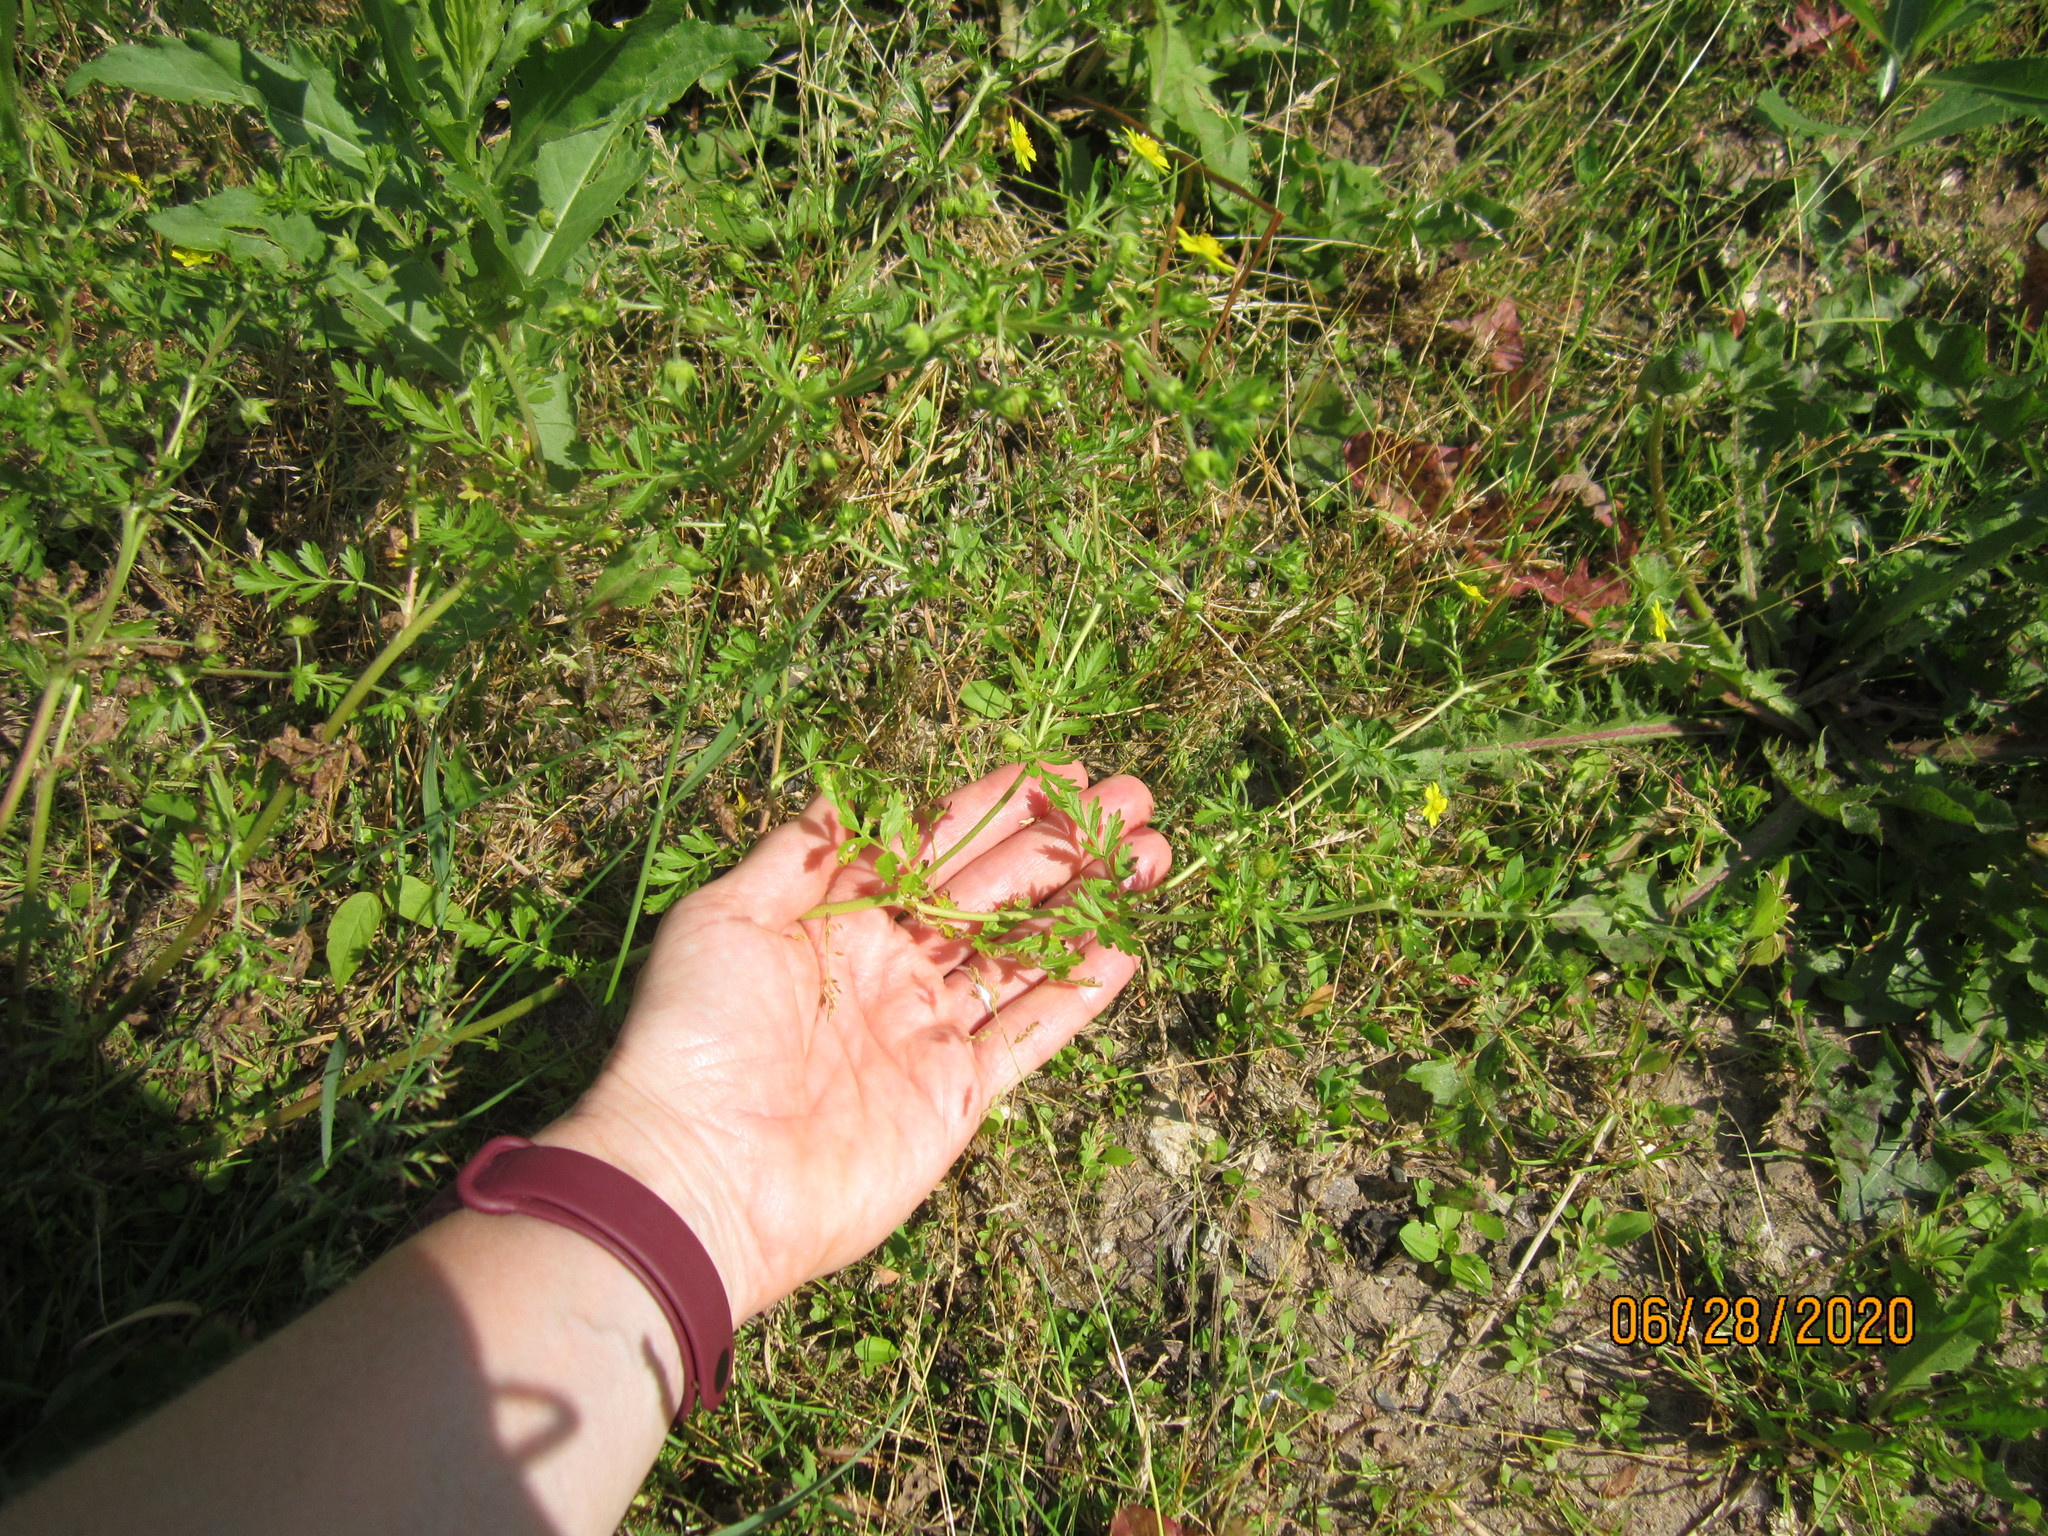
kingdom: Plantae
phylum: Tracheophyta
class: Magnoliopsida
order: Rosales
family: Rosaceae
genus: Potentilla
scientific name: Potentilla supina
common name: Prostrate cinquefoil
